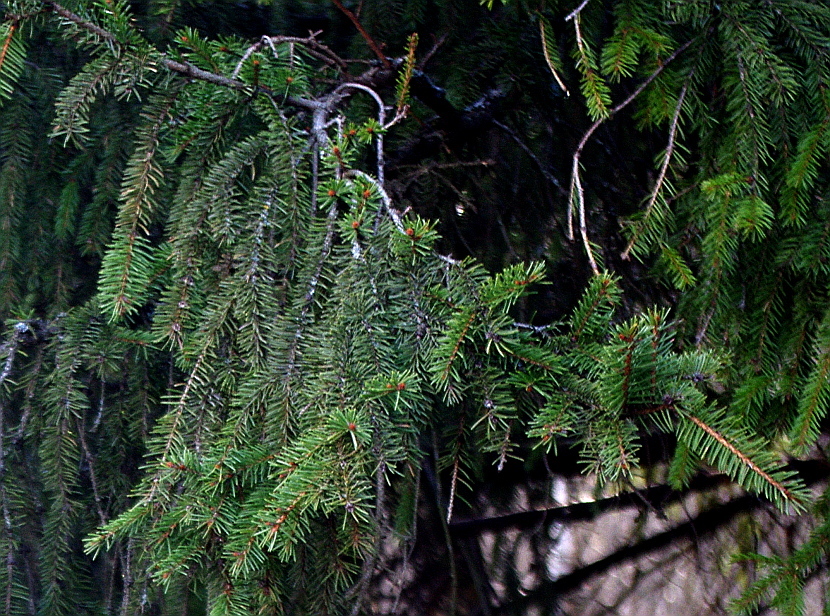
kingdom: Plantae
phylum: Tracheophyta
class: Pinopsida
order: Pinales
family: Pinaceae
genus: Picea
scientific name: Picea abies
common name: Norway spruce
